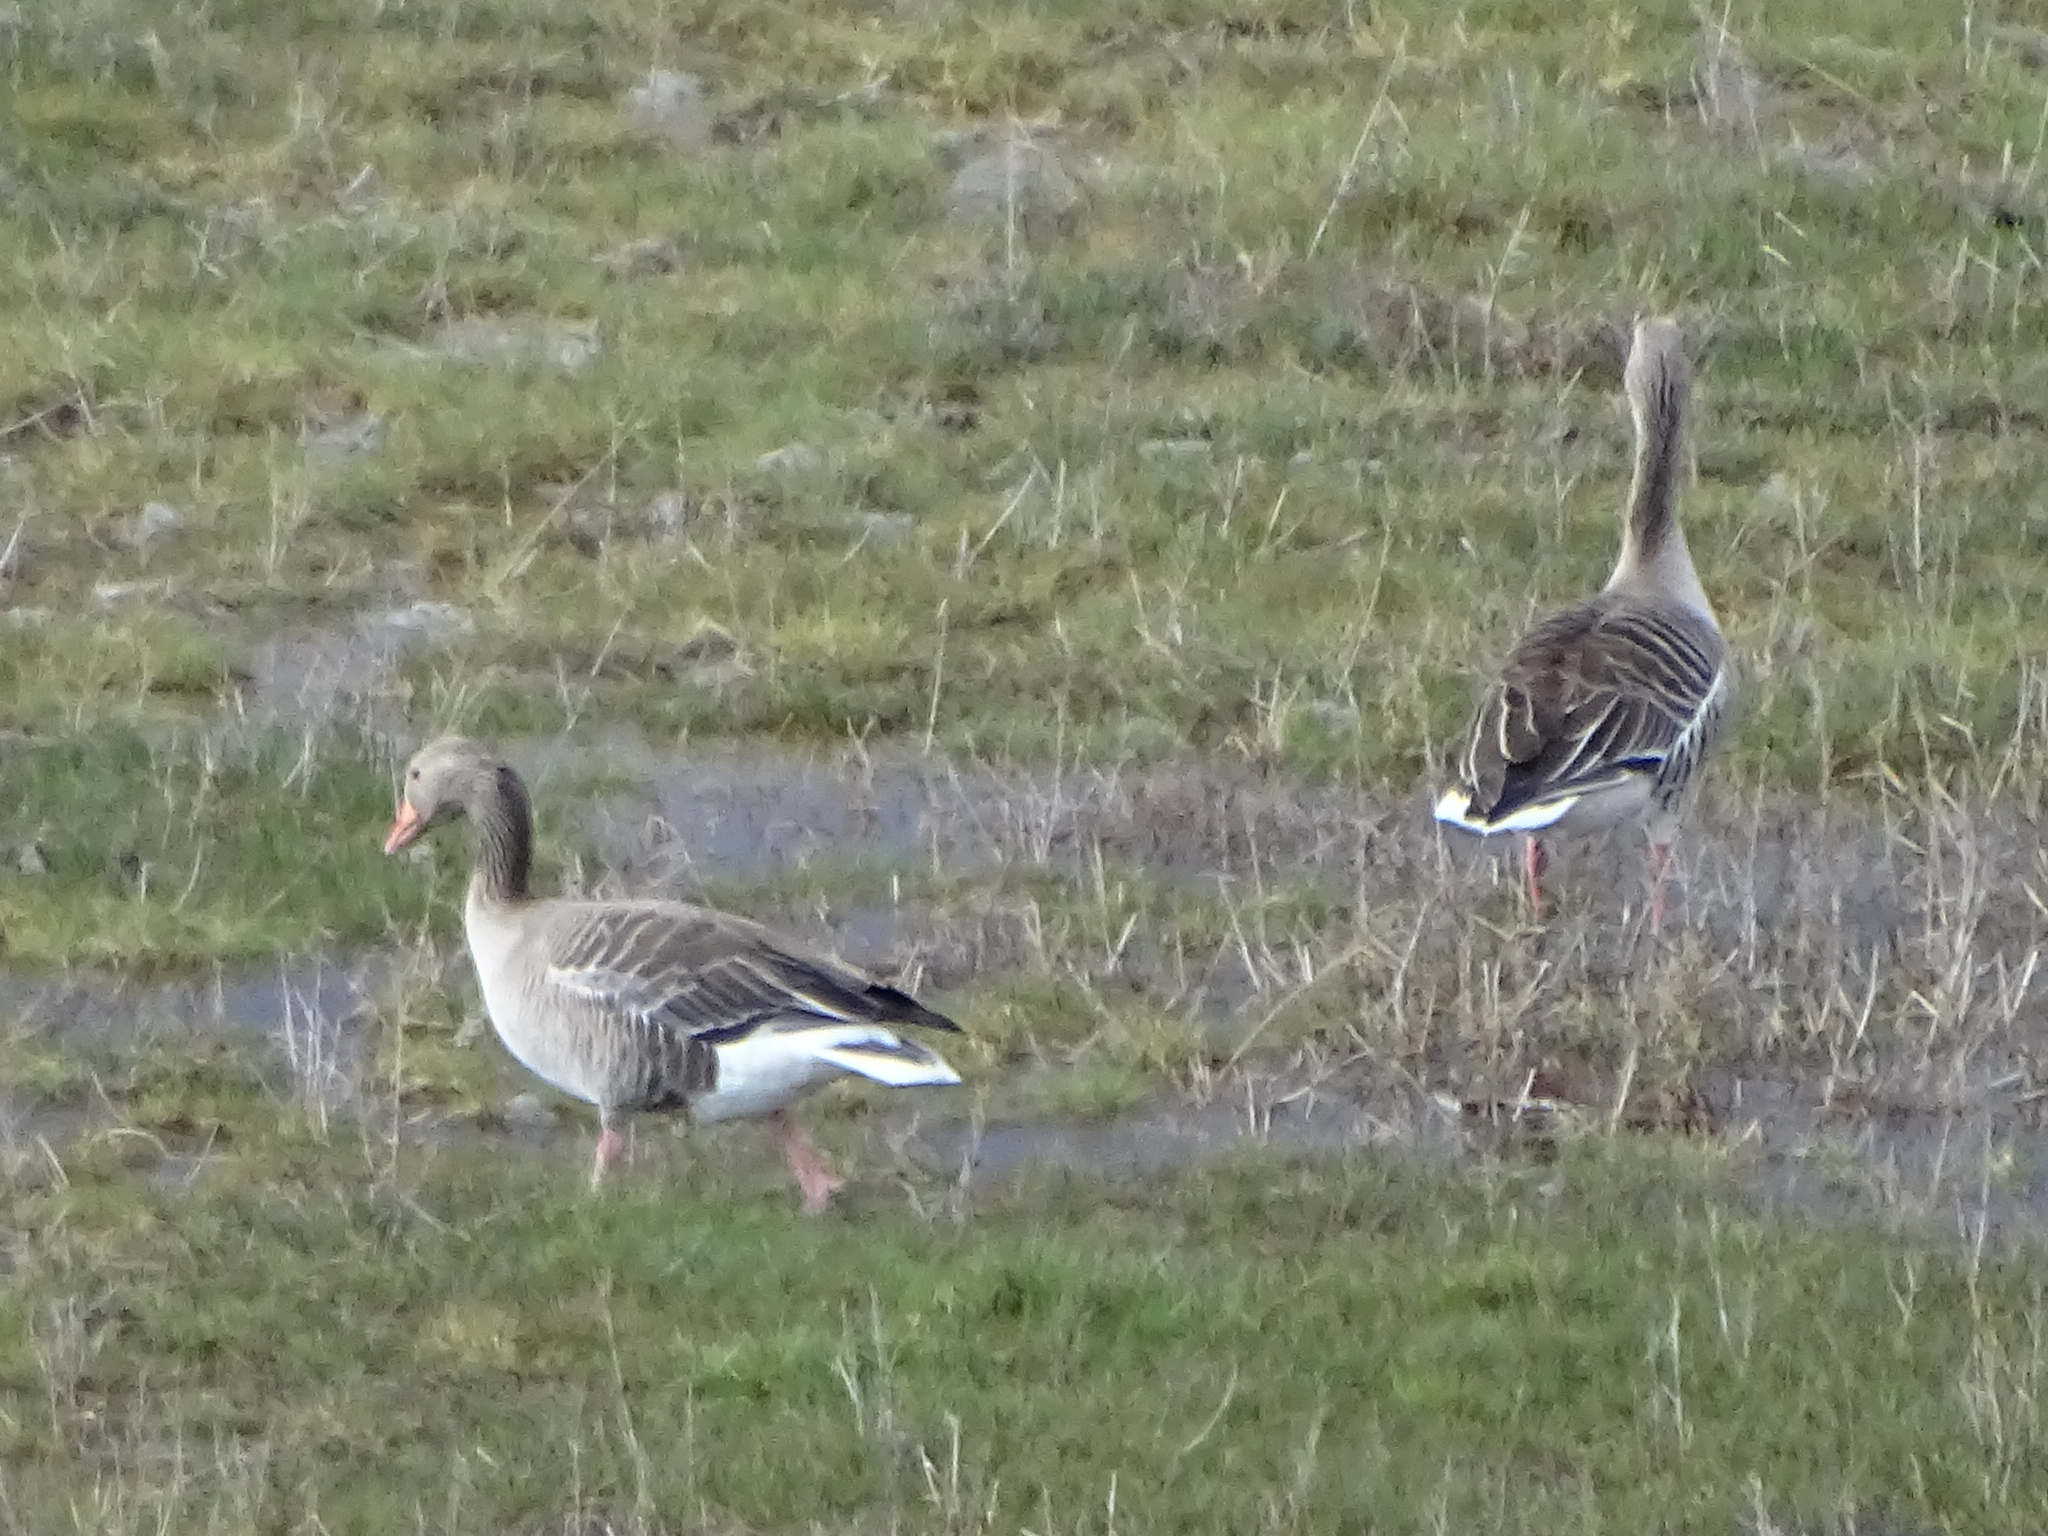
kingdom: Animalia
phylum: Chordata
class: Aves
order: Anseriformes
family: Anatidae
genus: Anser
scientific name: Anser anser
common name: Greylag goose
